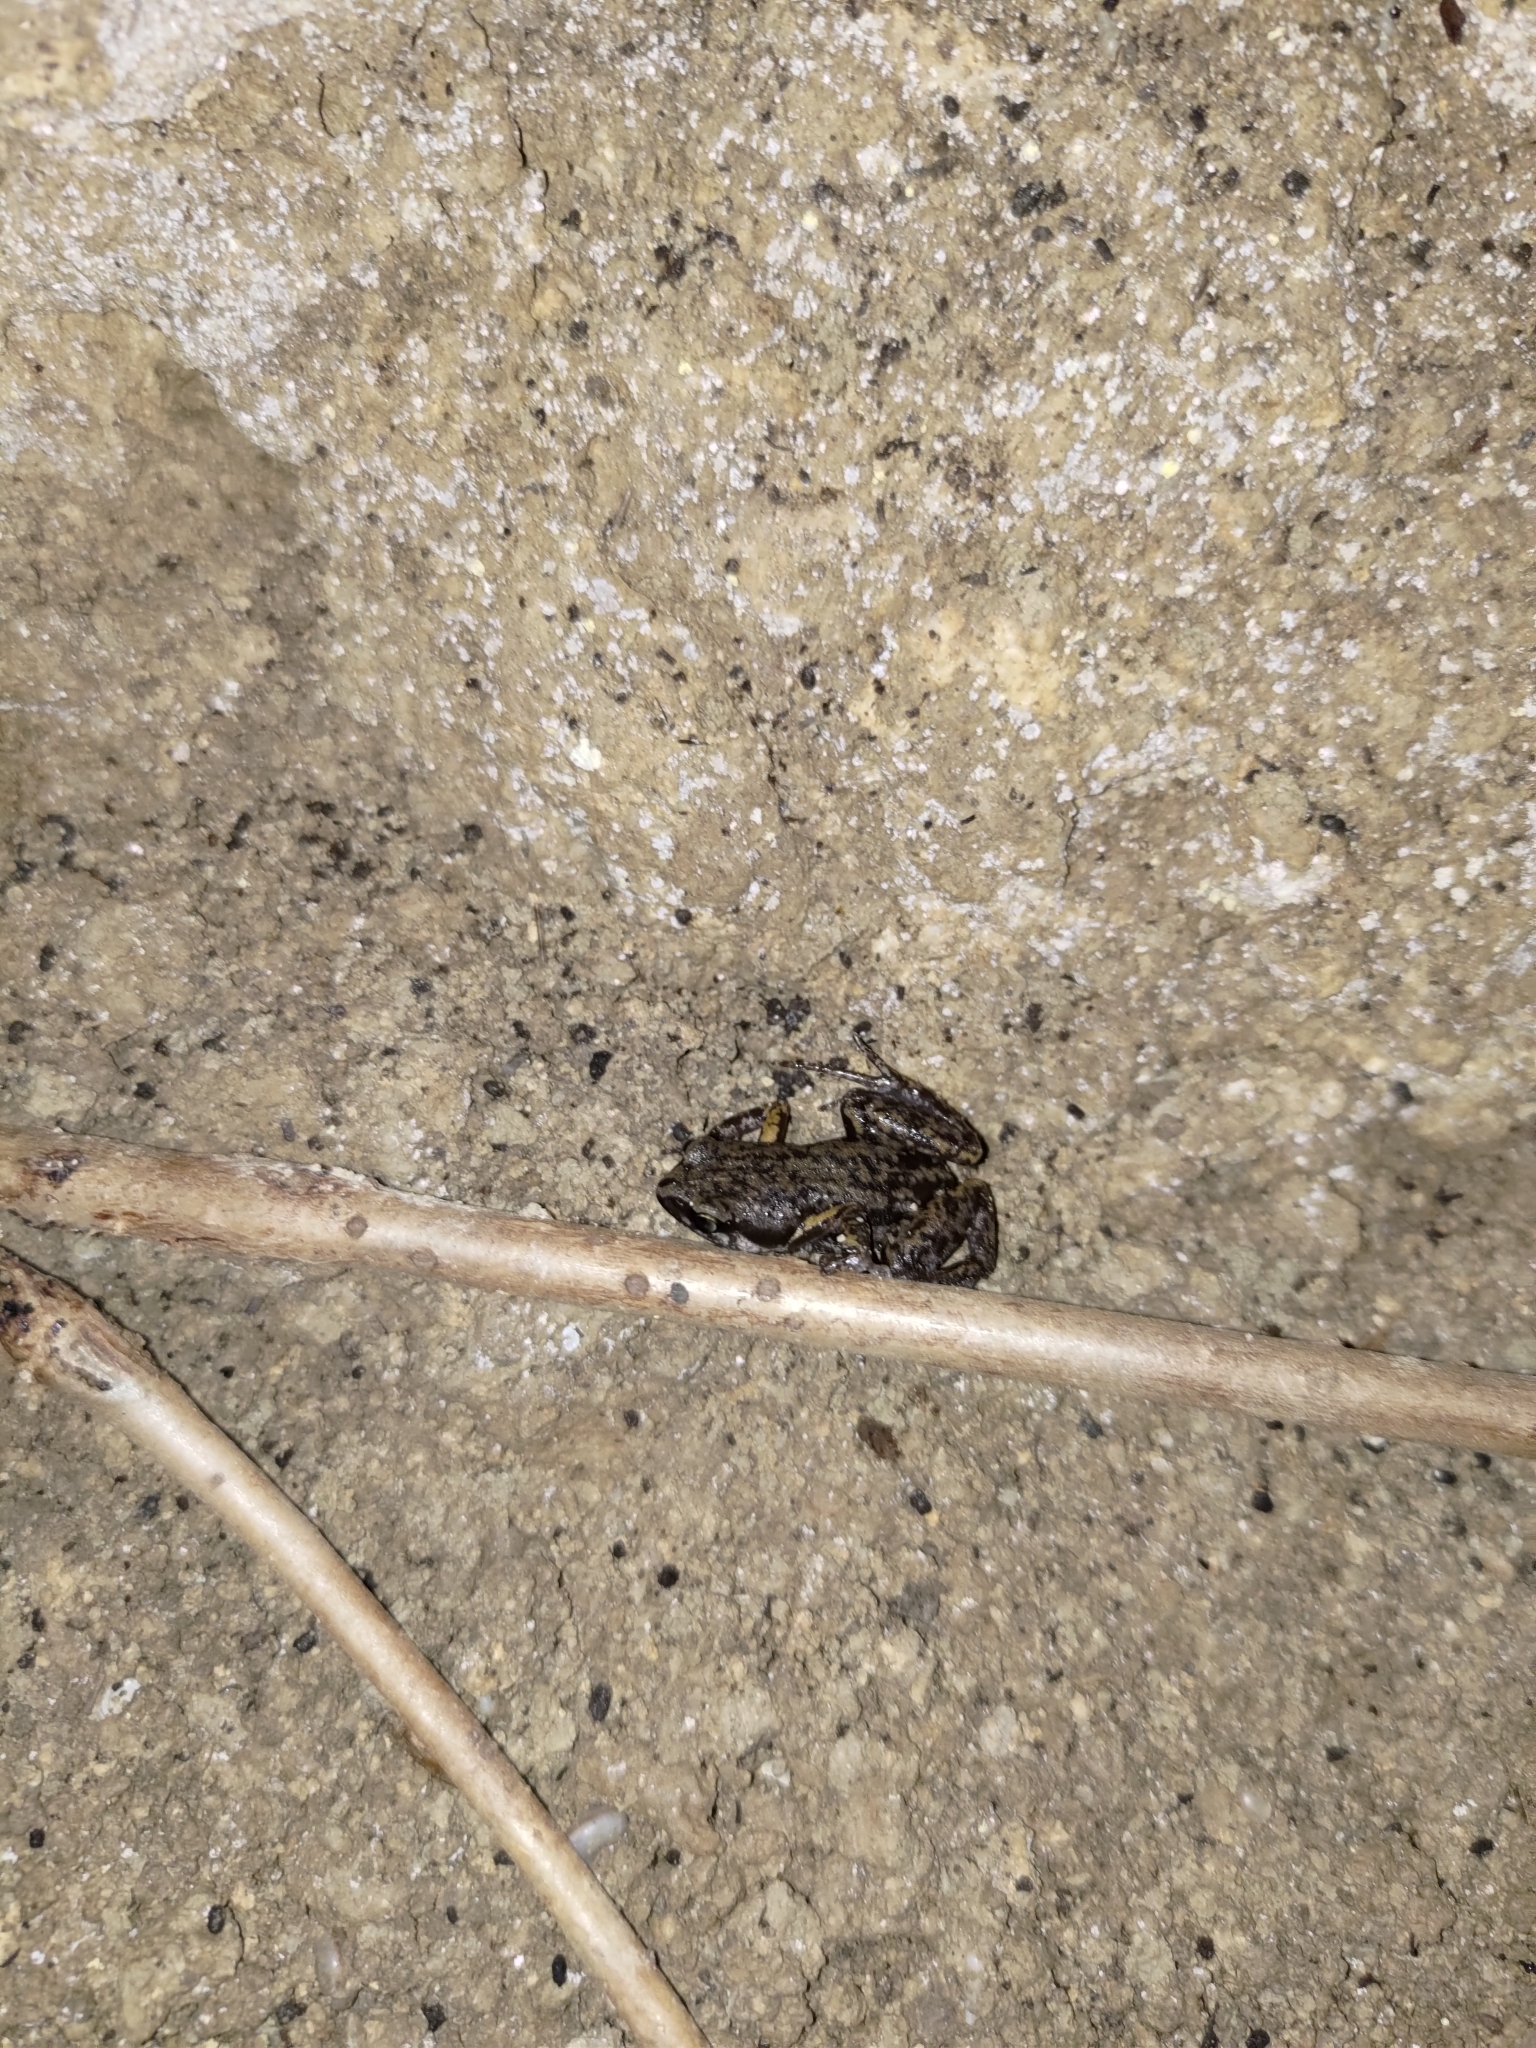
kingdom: Animalia
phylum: Chordata
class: Amphibia
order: Anura
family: Microhylidae
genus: Micryletta
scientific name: Micryletta steinegeri
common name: Stejneger's paddy frog
